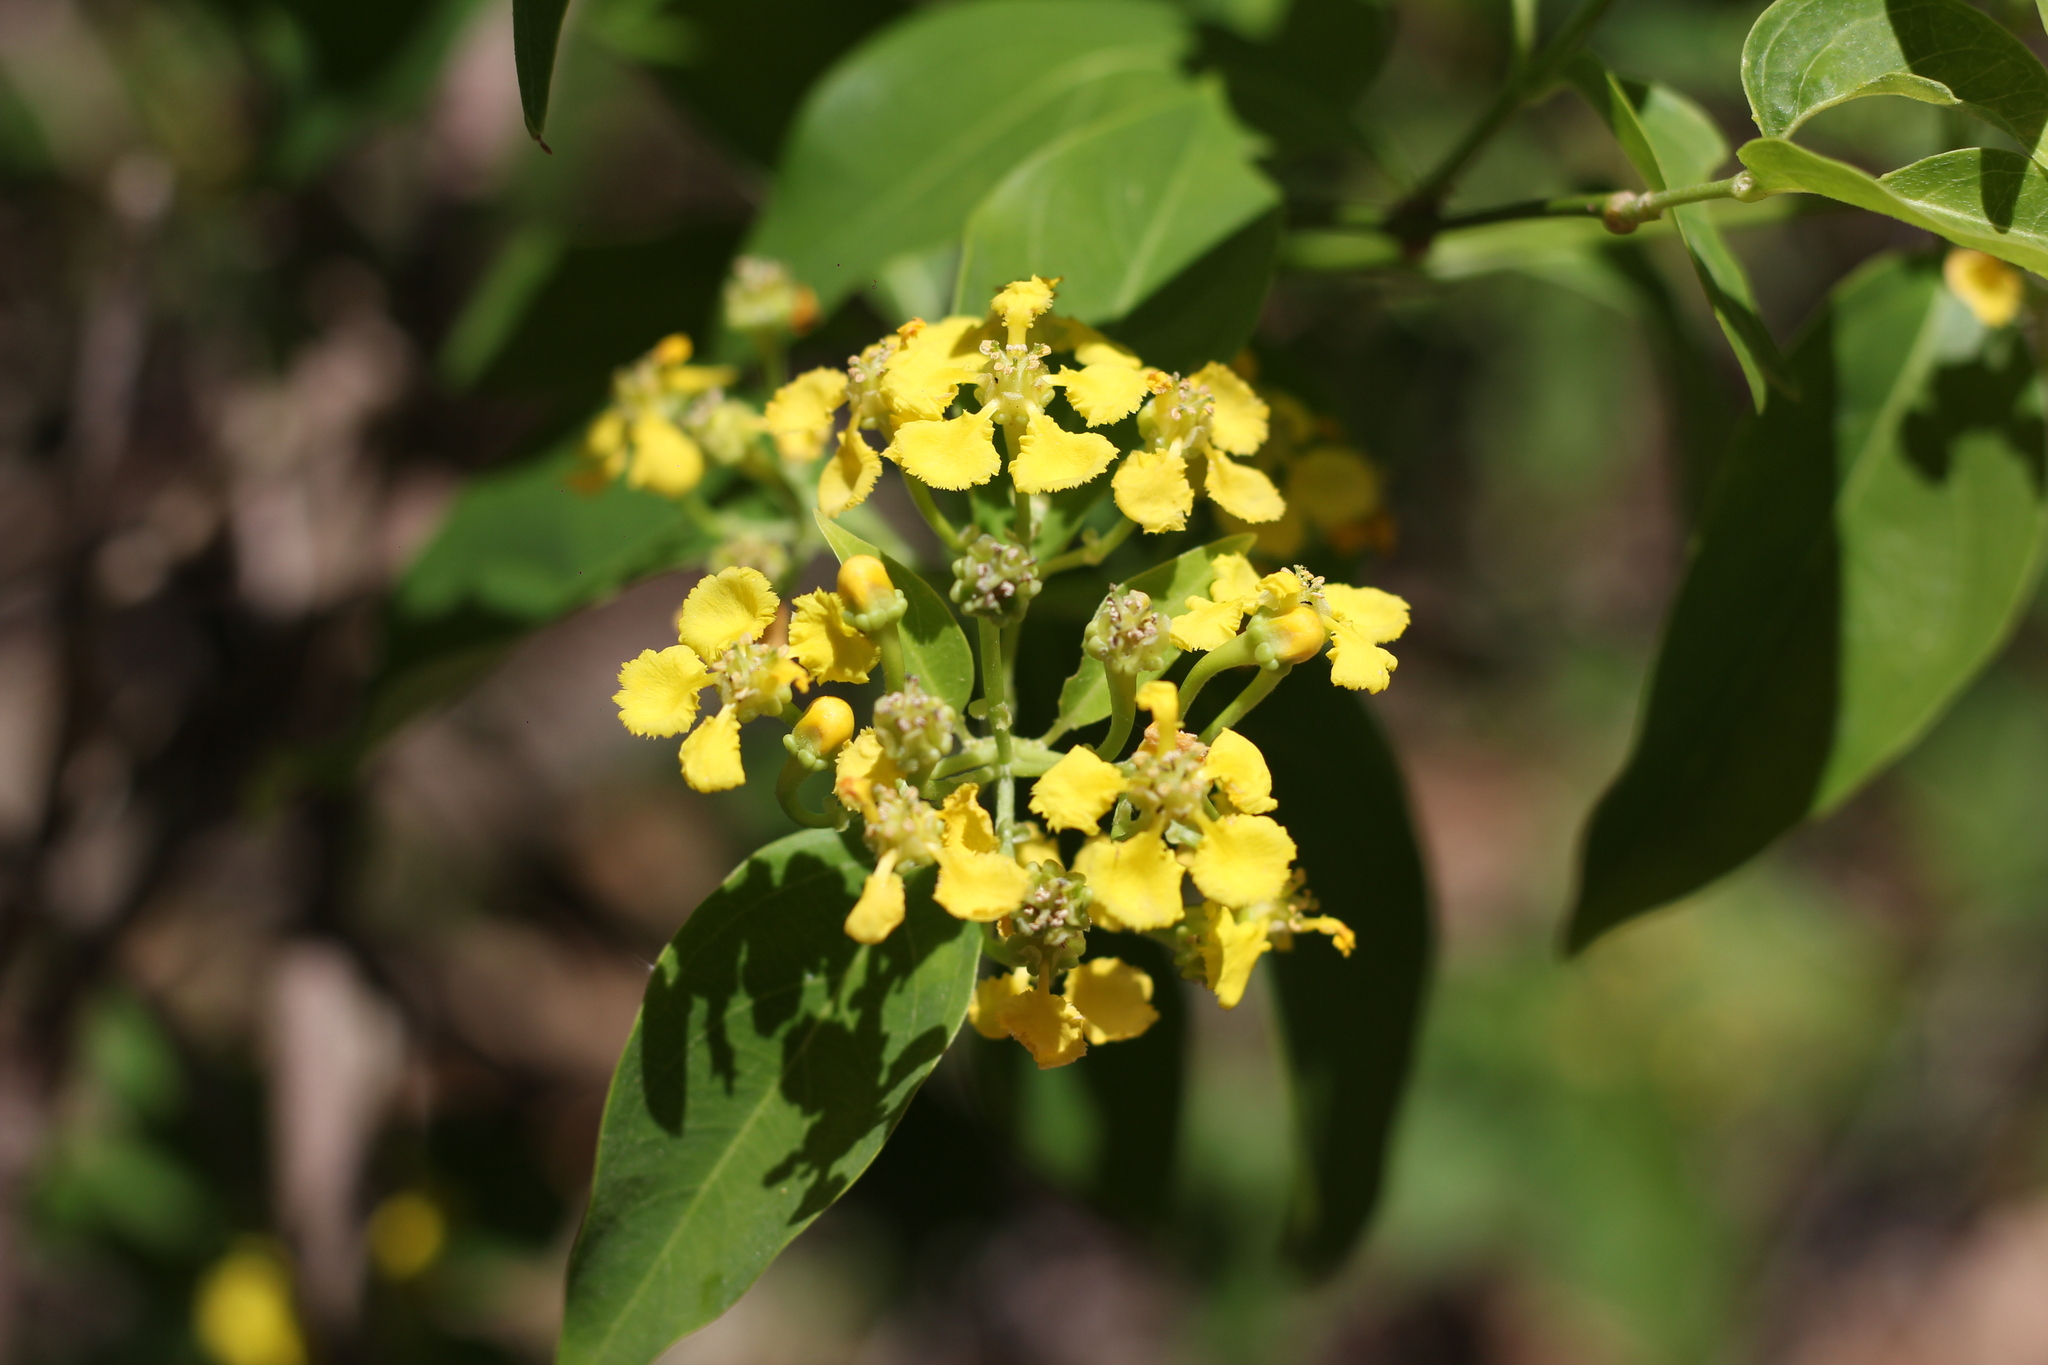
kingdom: Plantae
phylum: Tracheophyta
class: Magnoliopsida
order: Malpighiales
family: Malpighiaceae
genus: Callaeum
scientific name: Callaeum psilophyllum
